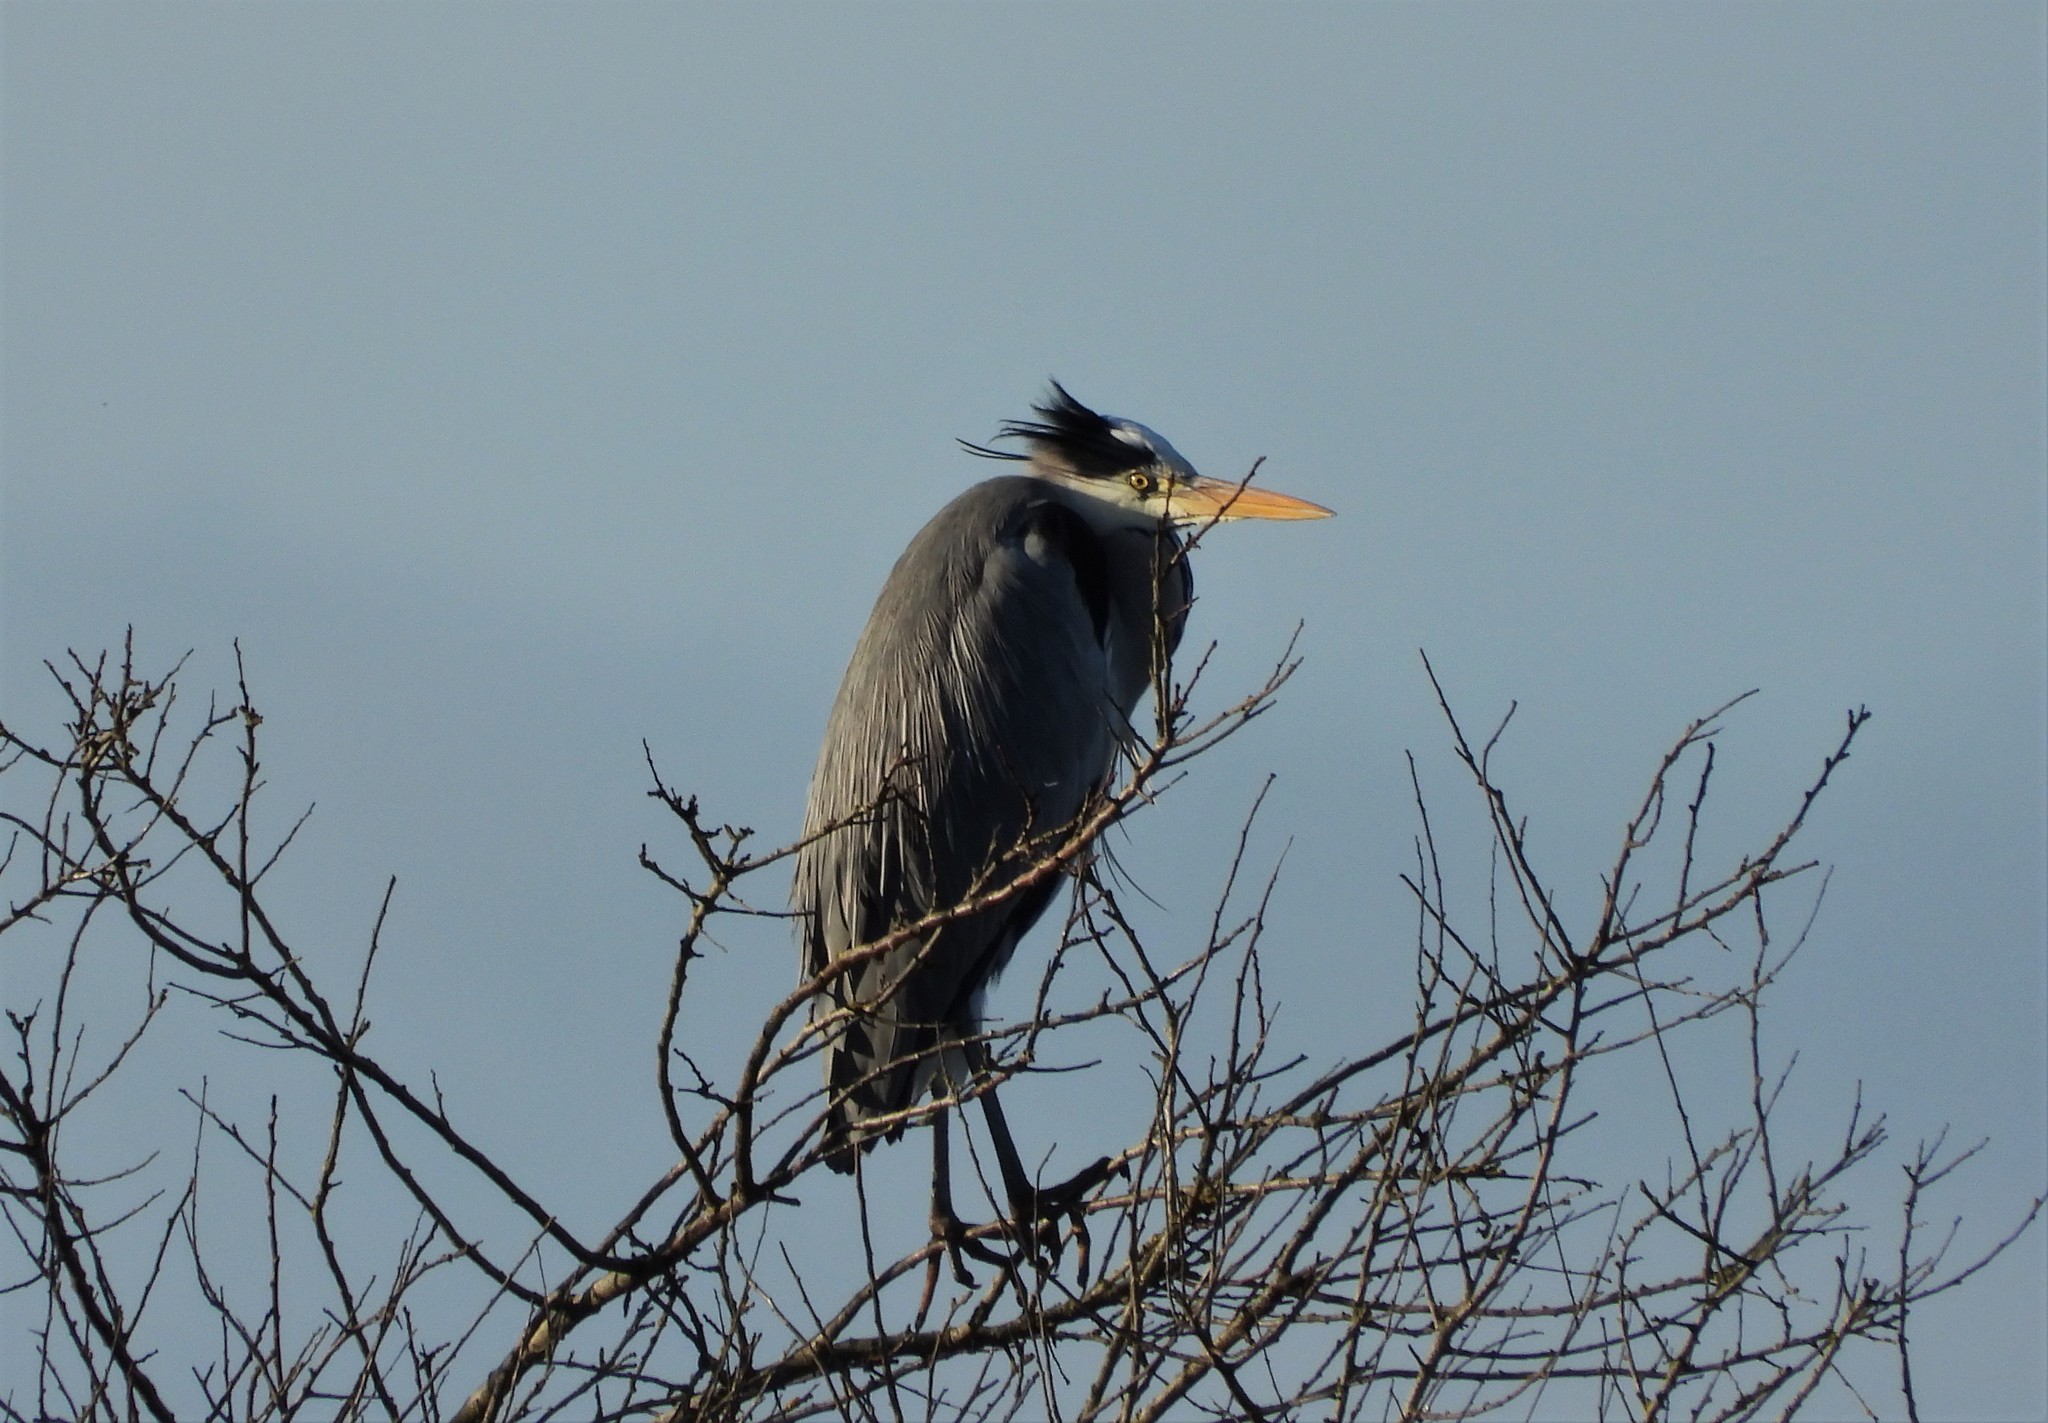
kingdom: Animalia
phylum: Chordata
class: Aves
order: Pelecaniformes
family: Ardeidae
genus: Ardea
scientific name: Ardea cinerea
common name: Grey heron
